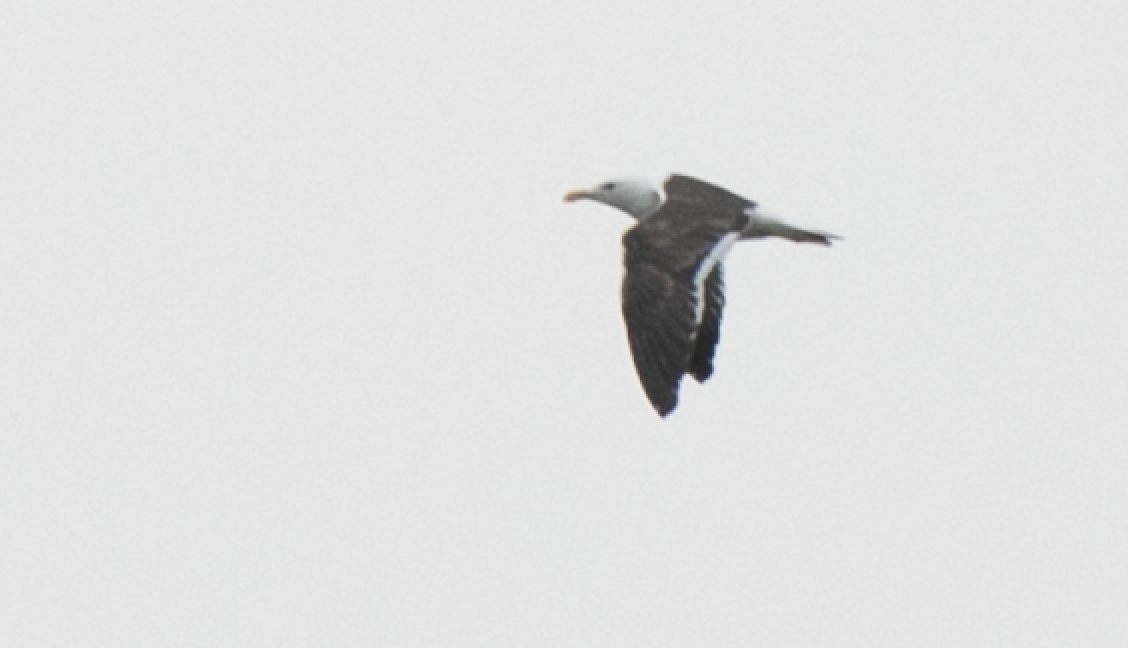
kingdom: Animalia
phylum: Chordata
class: Aves
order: Charadriiformes
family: Laridae
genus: Larus
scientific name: Larus fuscus
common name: Lesser black-backed gull
